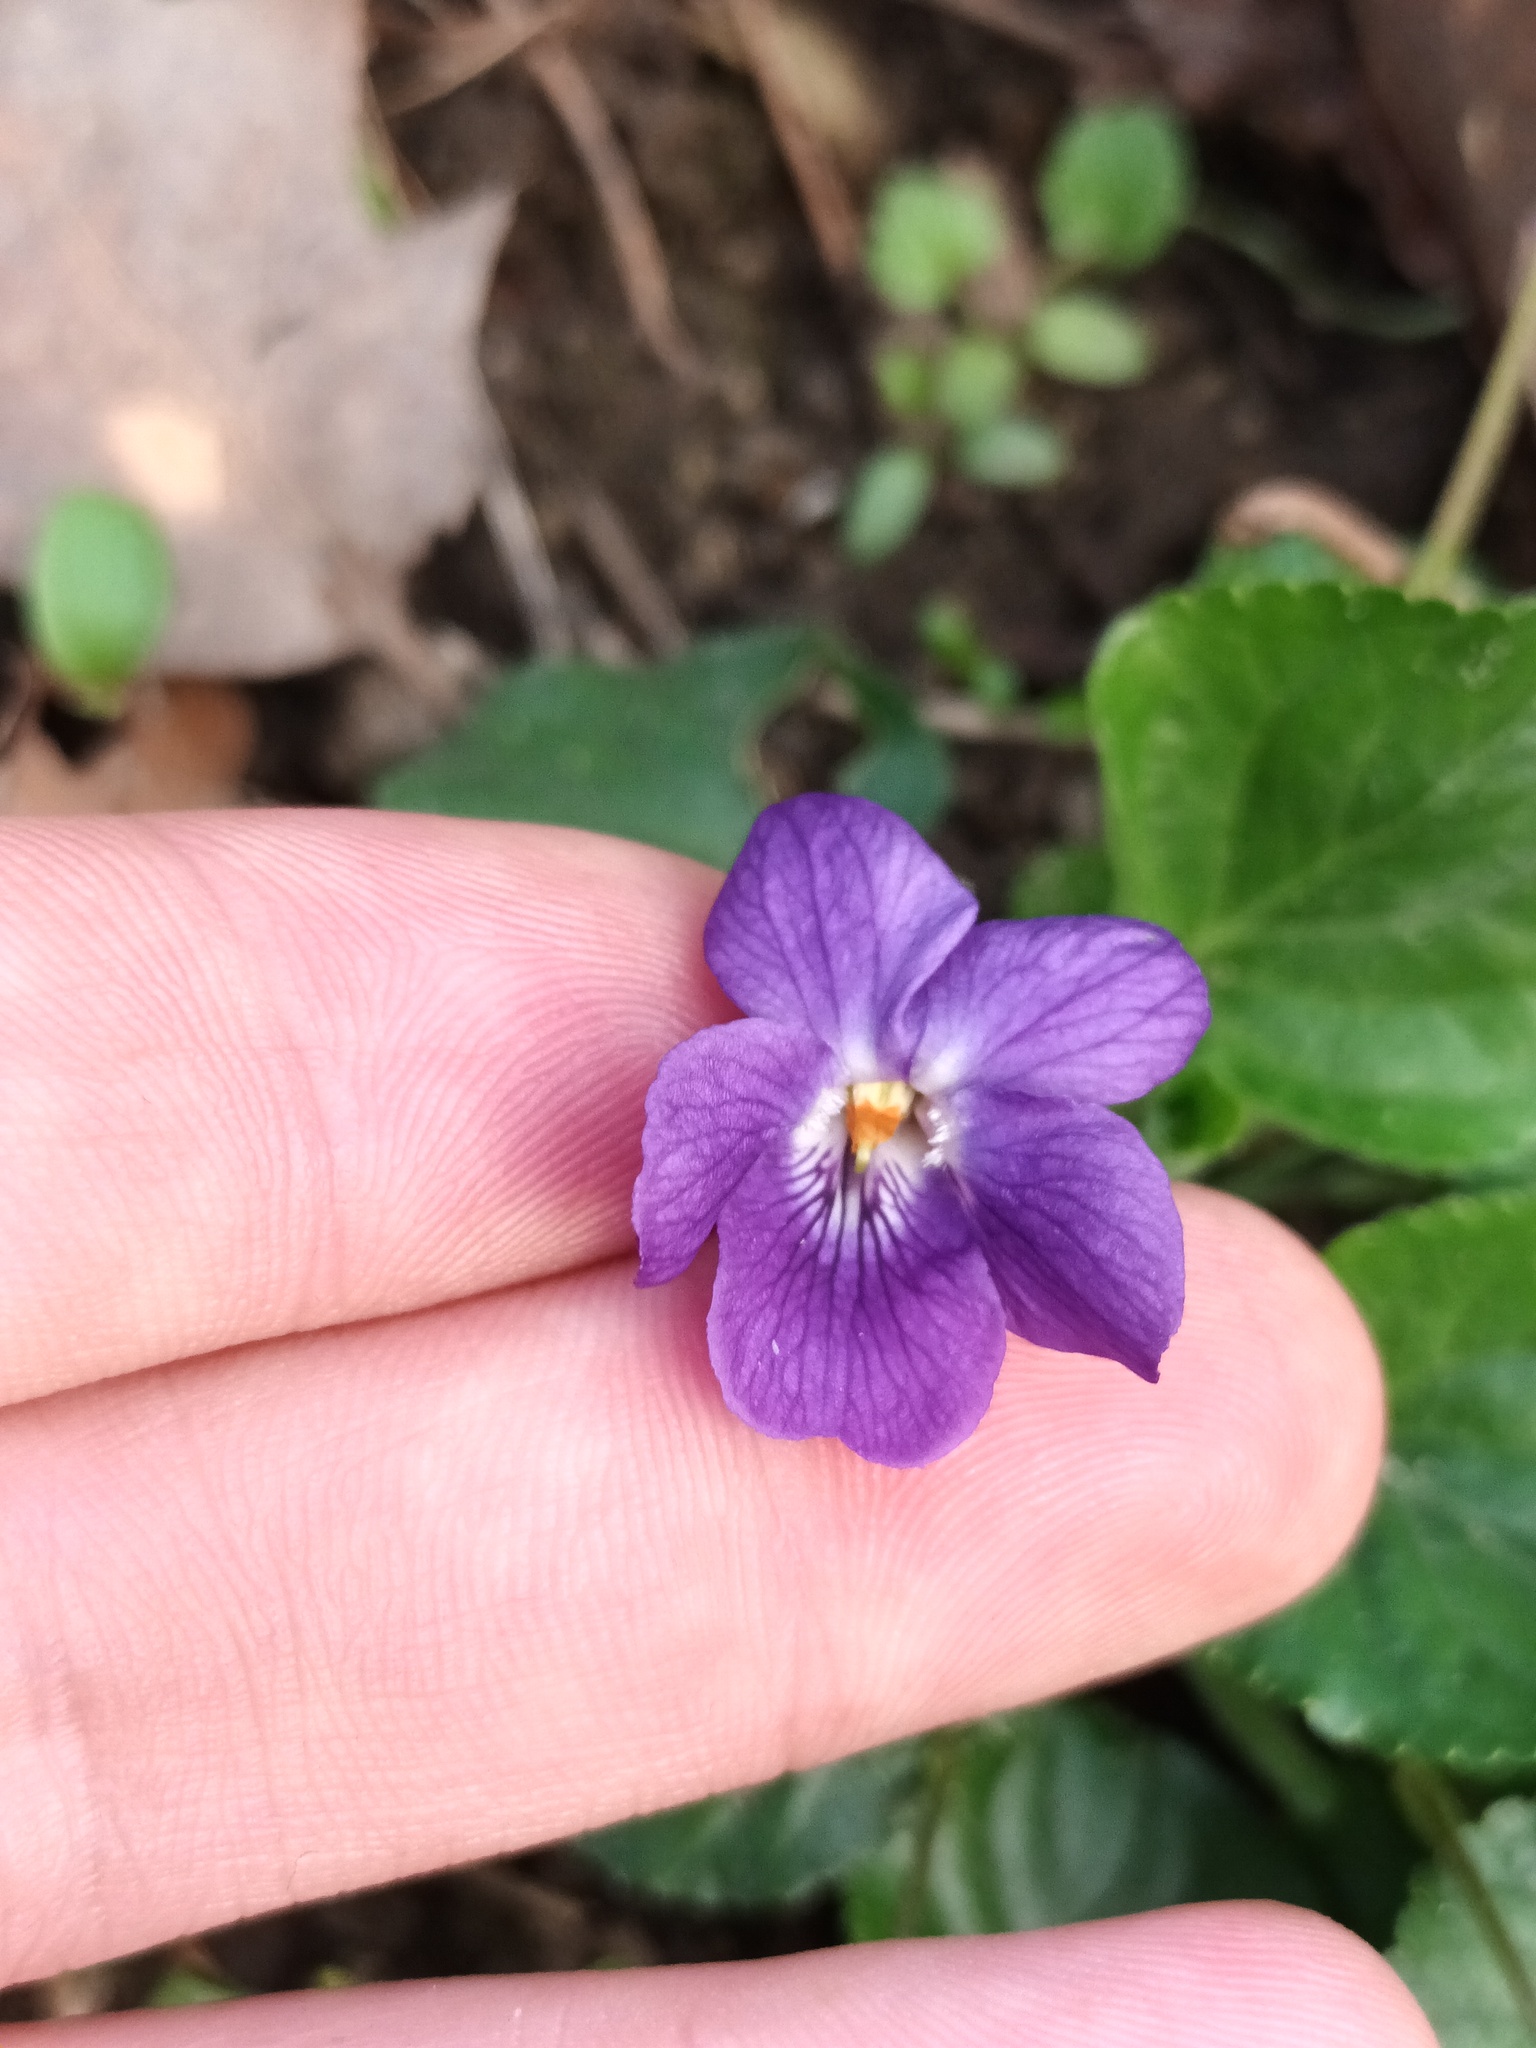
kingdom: Plantae
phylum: Tracheophyta
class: Magnoliopsida
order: Malpighiales
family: Violaceae
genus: Viola
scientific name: Viola odorata
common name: Sweet violet
